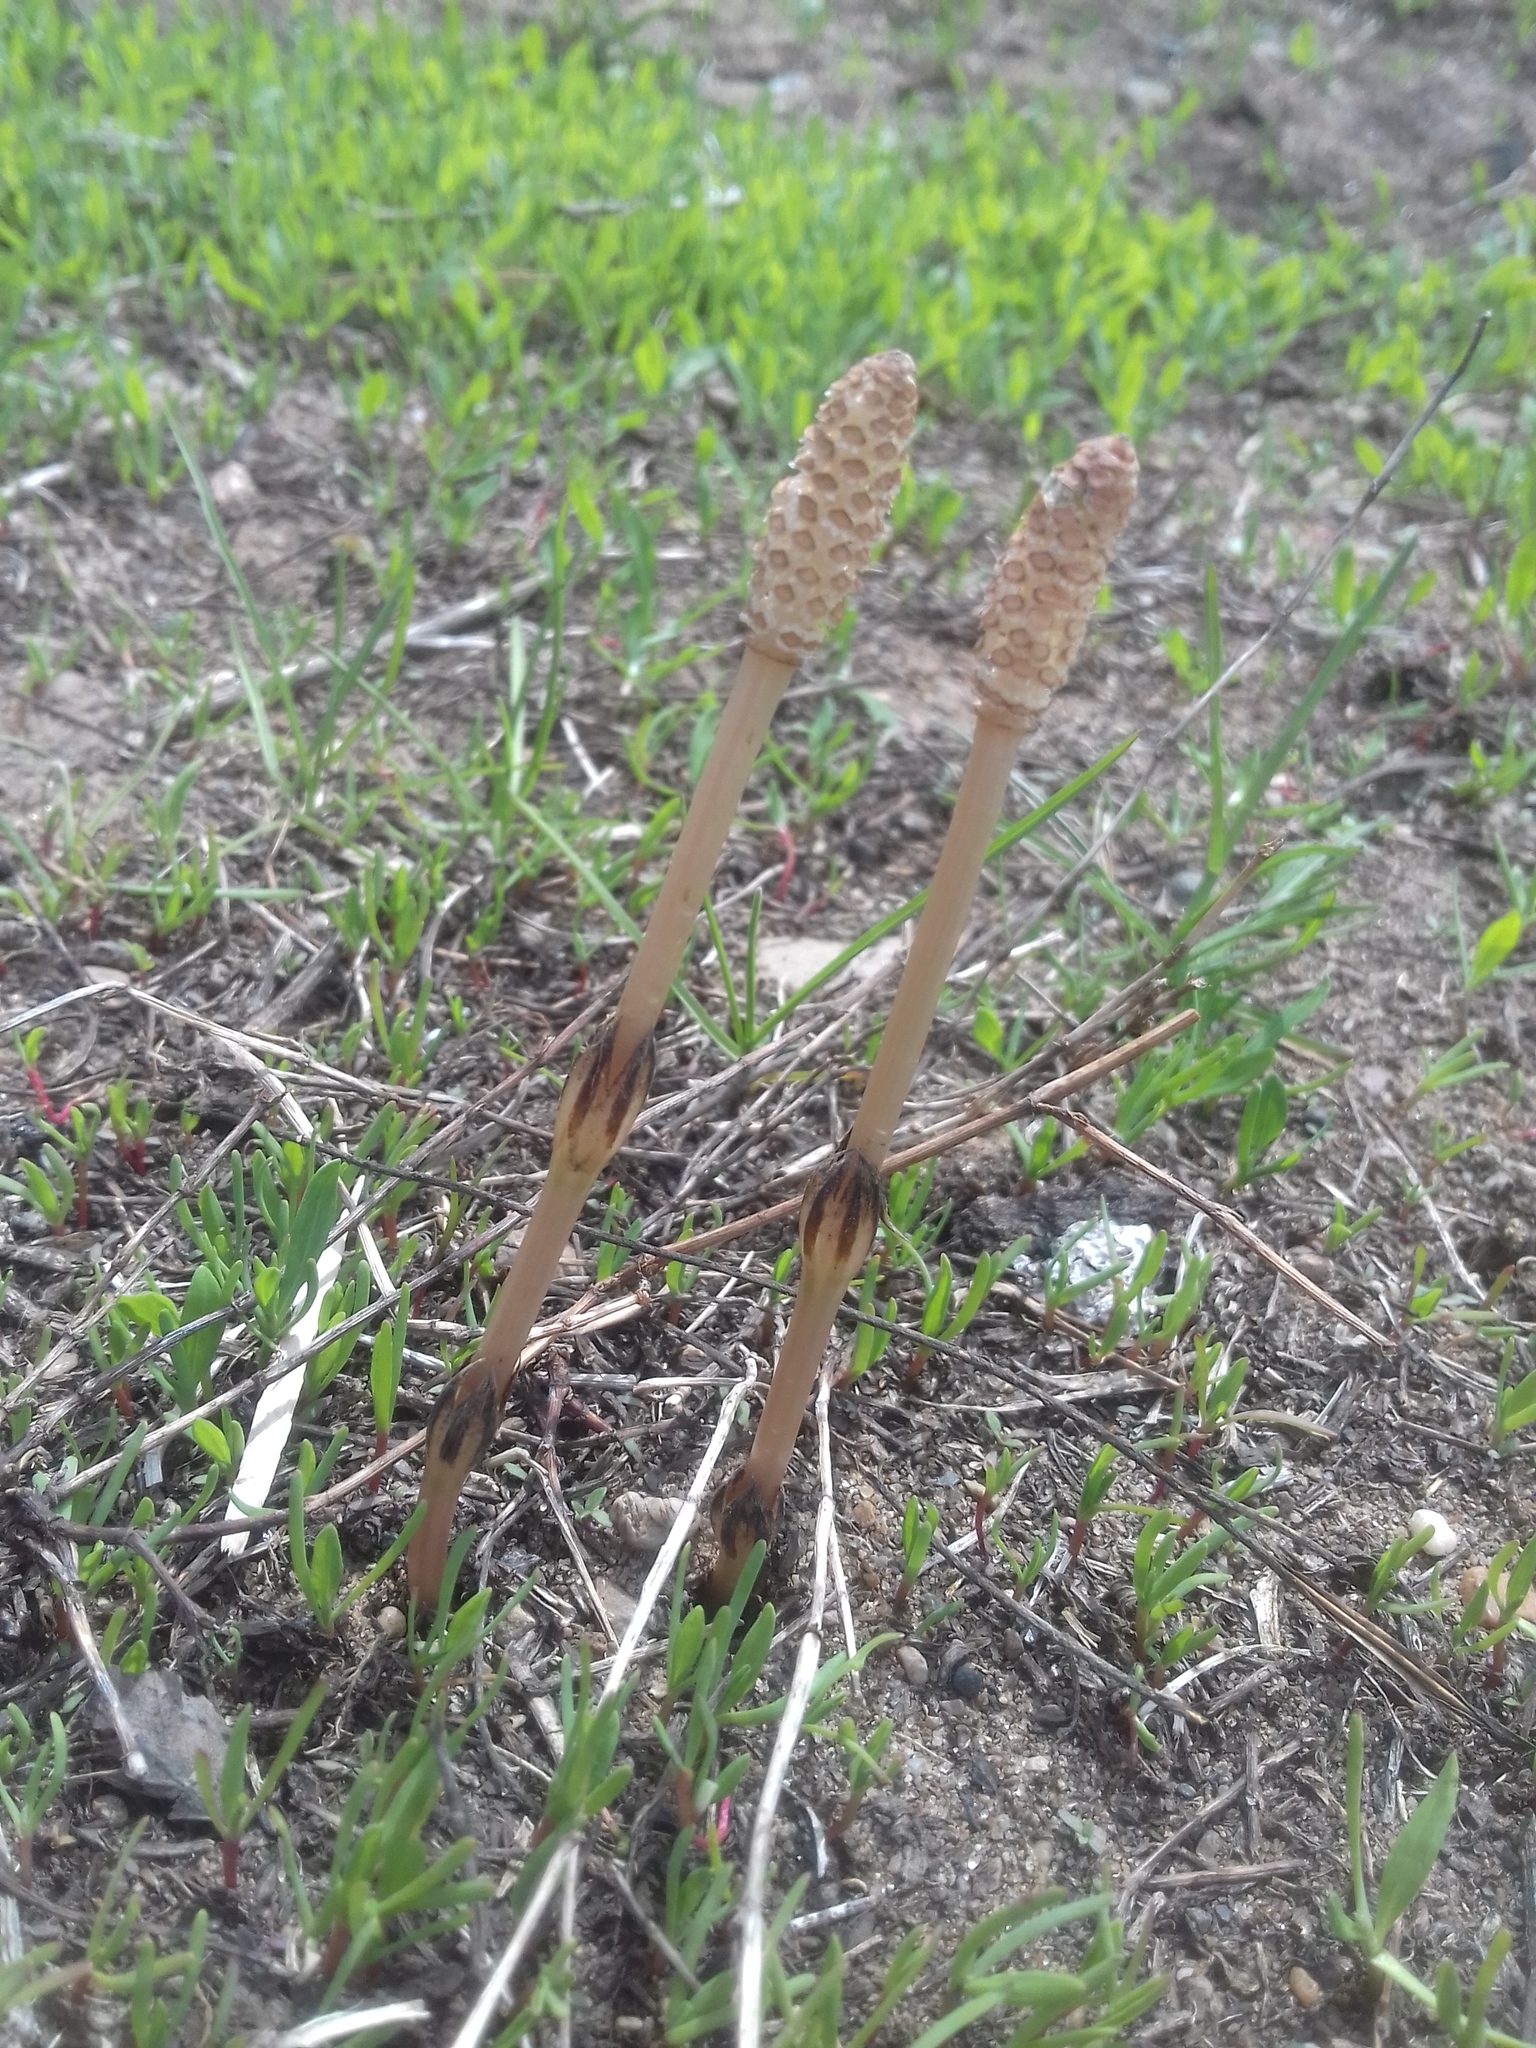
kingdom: Plantae
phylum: Tracheophyta
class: Polypodiopsida
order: Equisetales
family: Equisetaceae
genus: Equisetum
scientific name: Equisetum arvense
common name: Field horsetail
